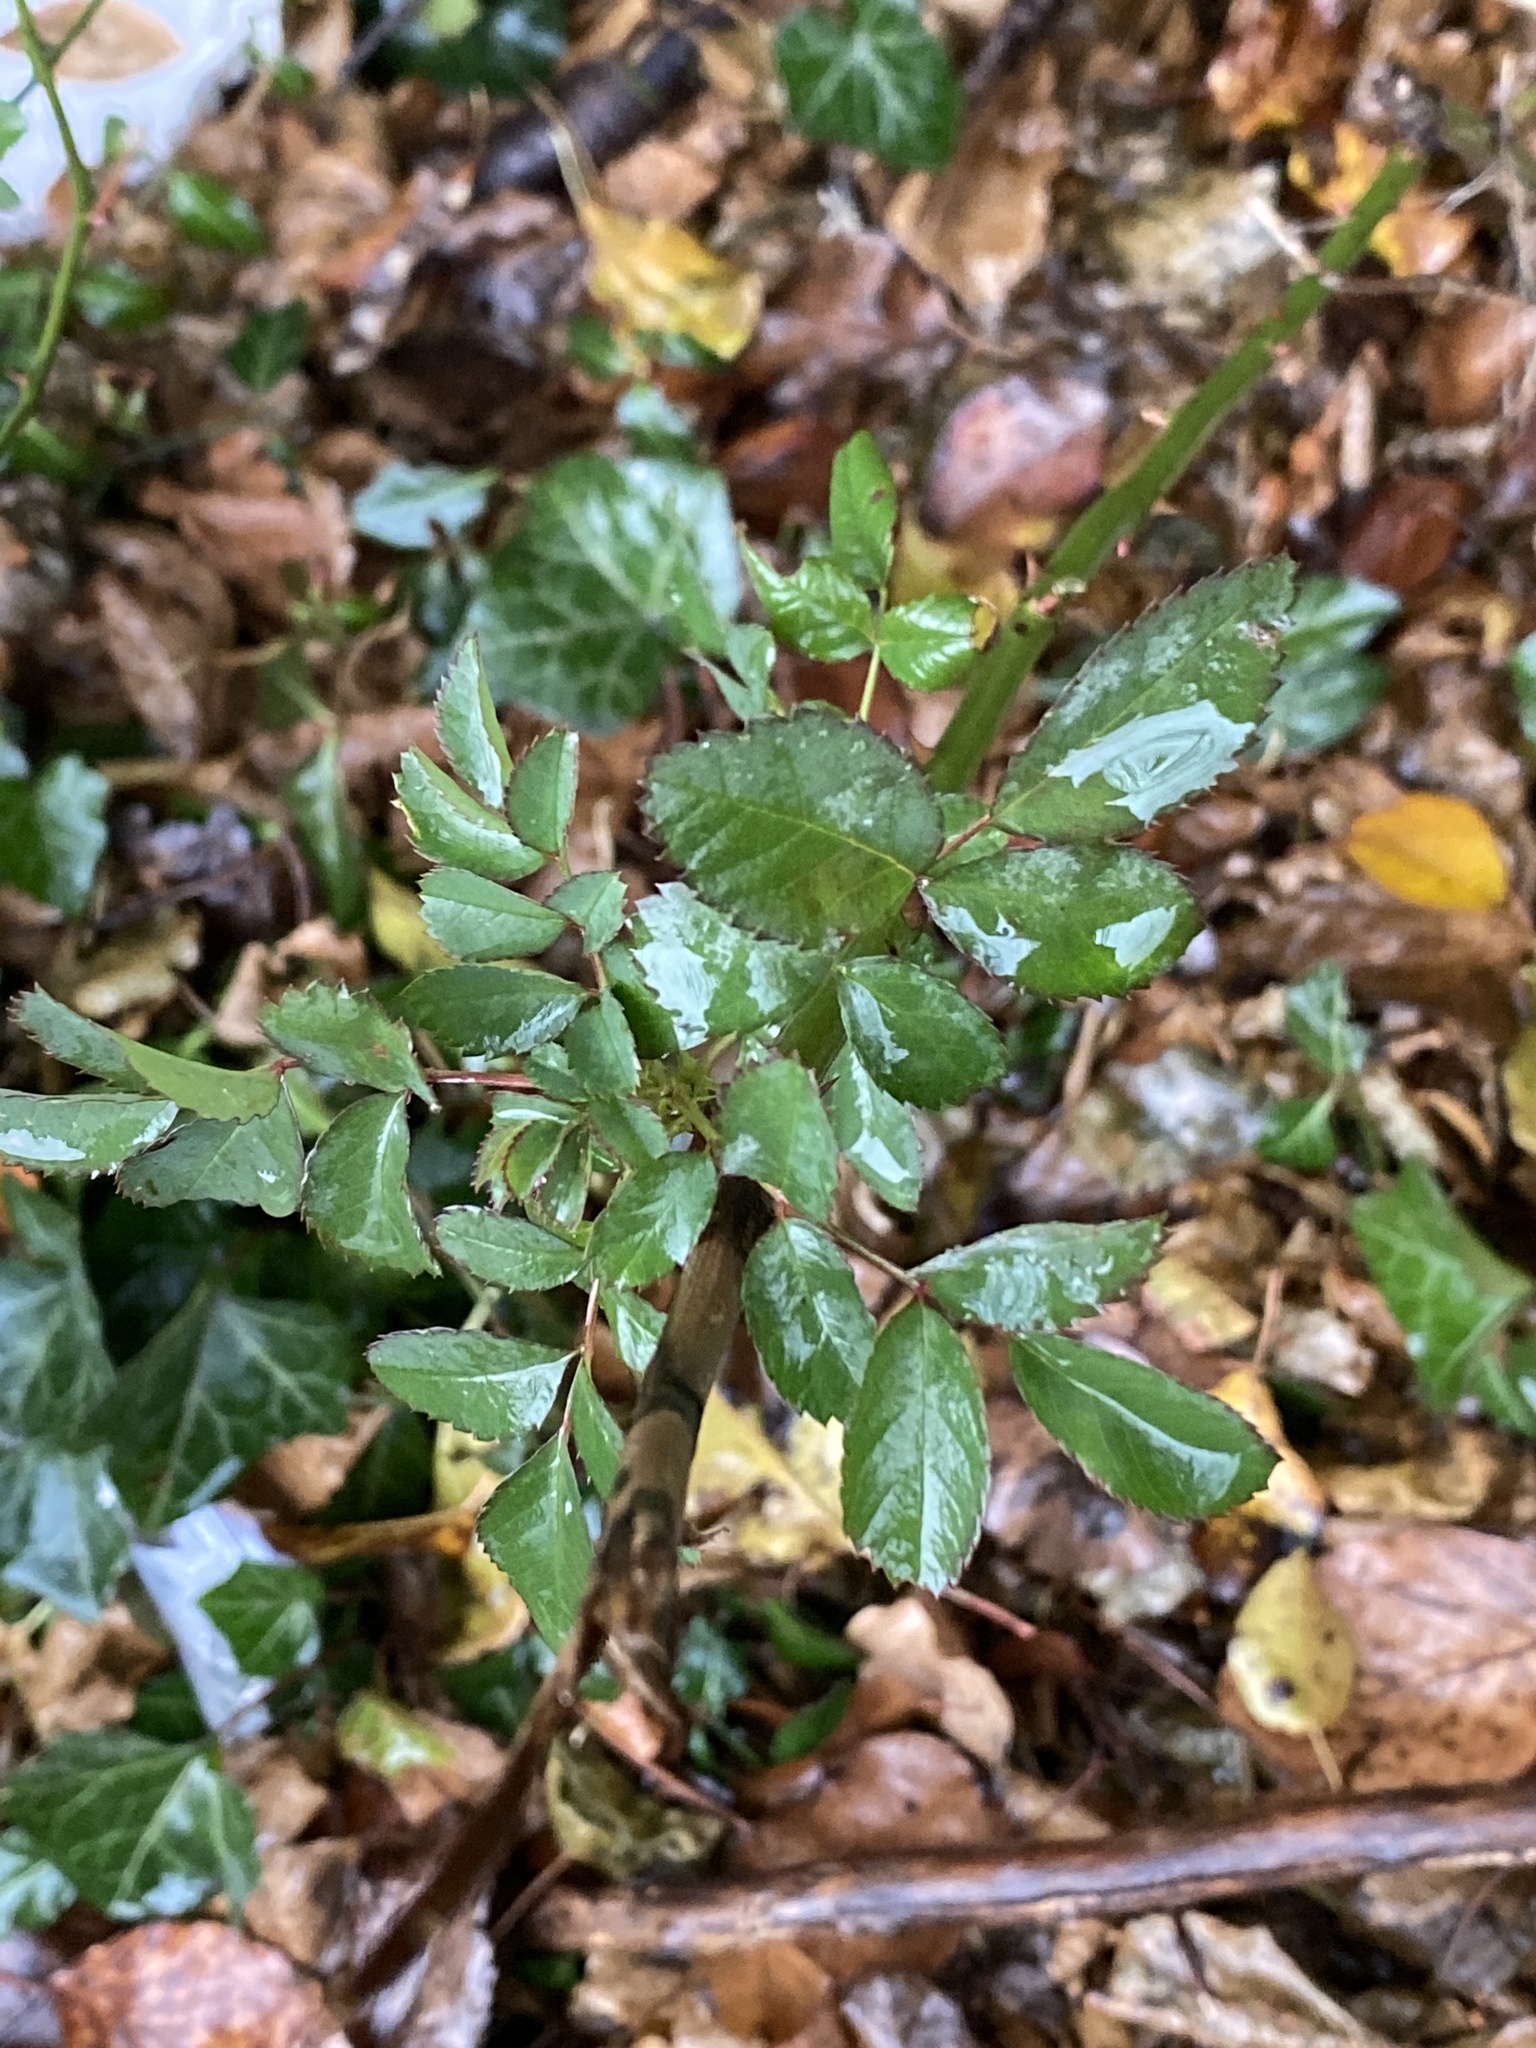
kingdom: Plantae
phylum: Tracheophyta
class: Magnoliopsida
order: Rosales
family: Rosaceae
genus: Rosa
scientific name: Rosa multiflora
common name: Multiflora rose
